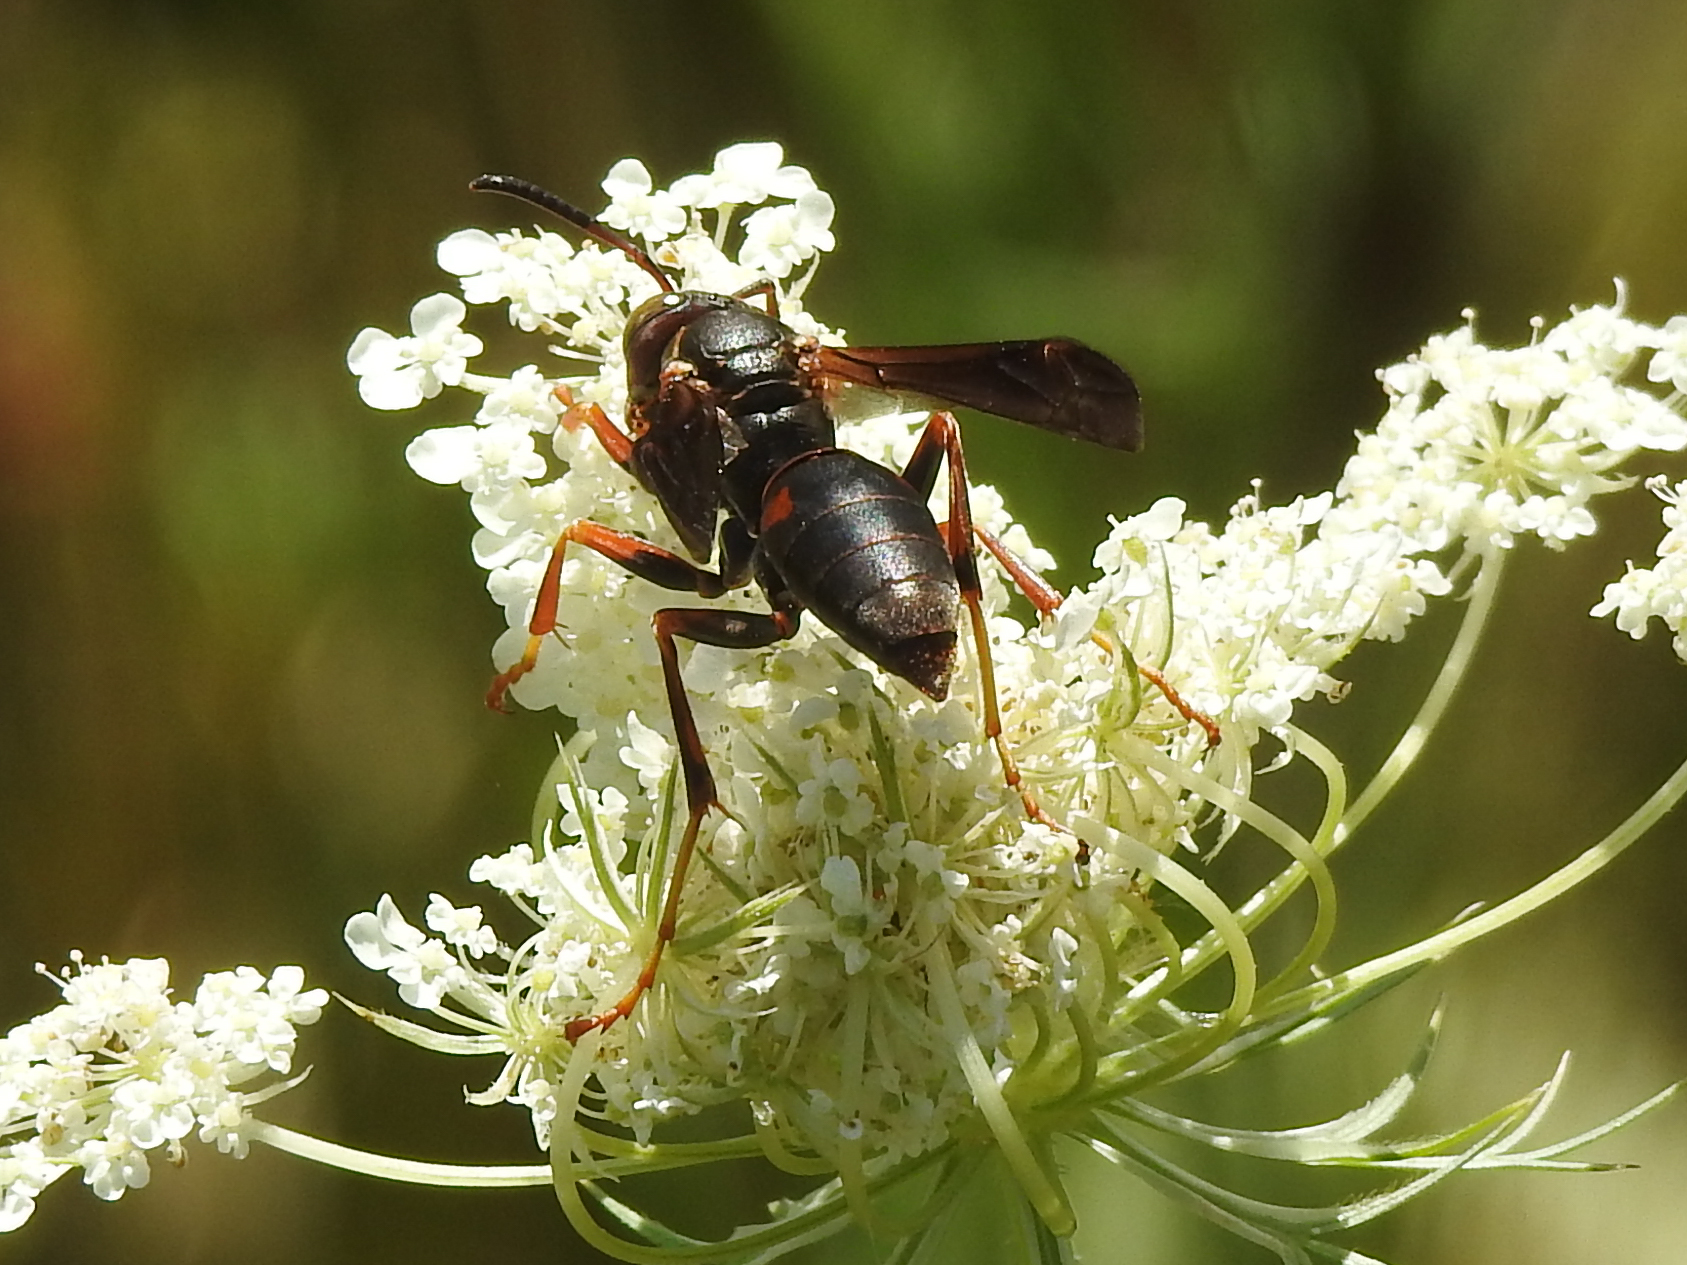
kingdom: Animalia
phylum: Arthropoda
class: Insecta
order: Hymenoptera
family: Eumenidae
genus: Polistes
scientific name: Polistes fuscatus
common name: Dark paper wasp
